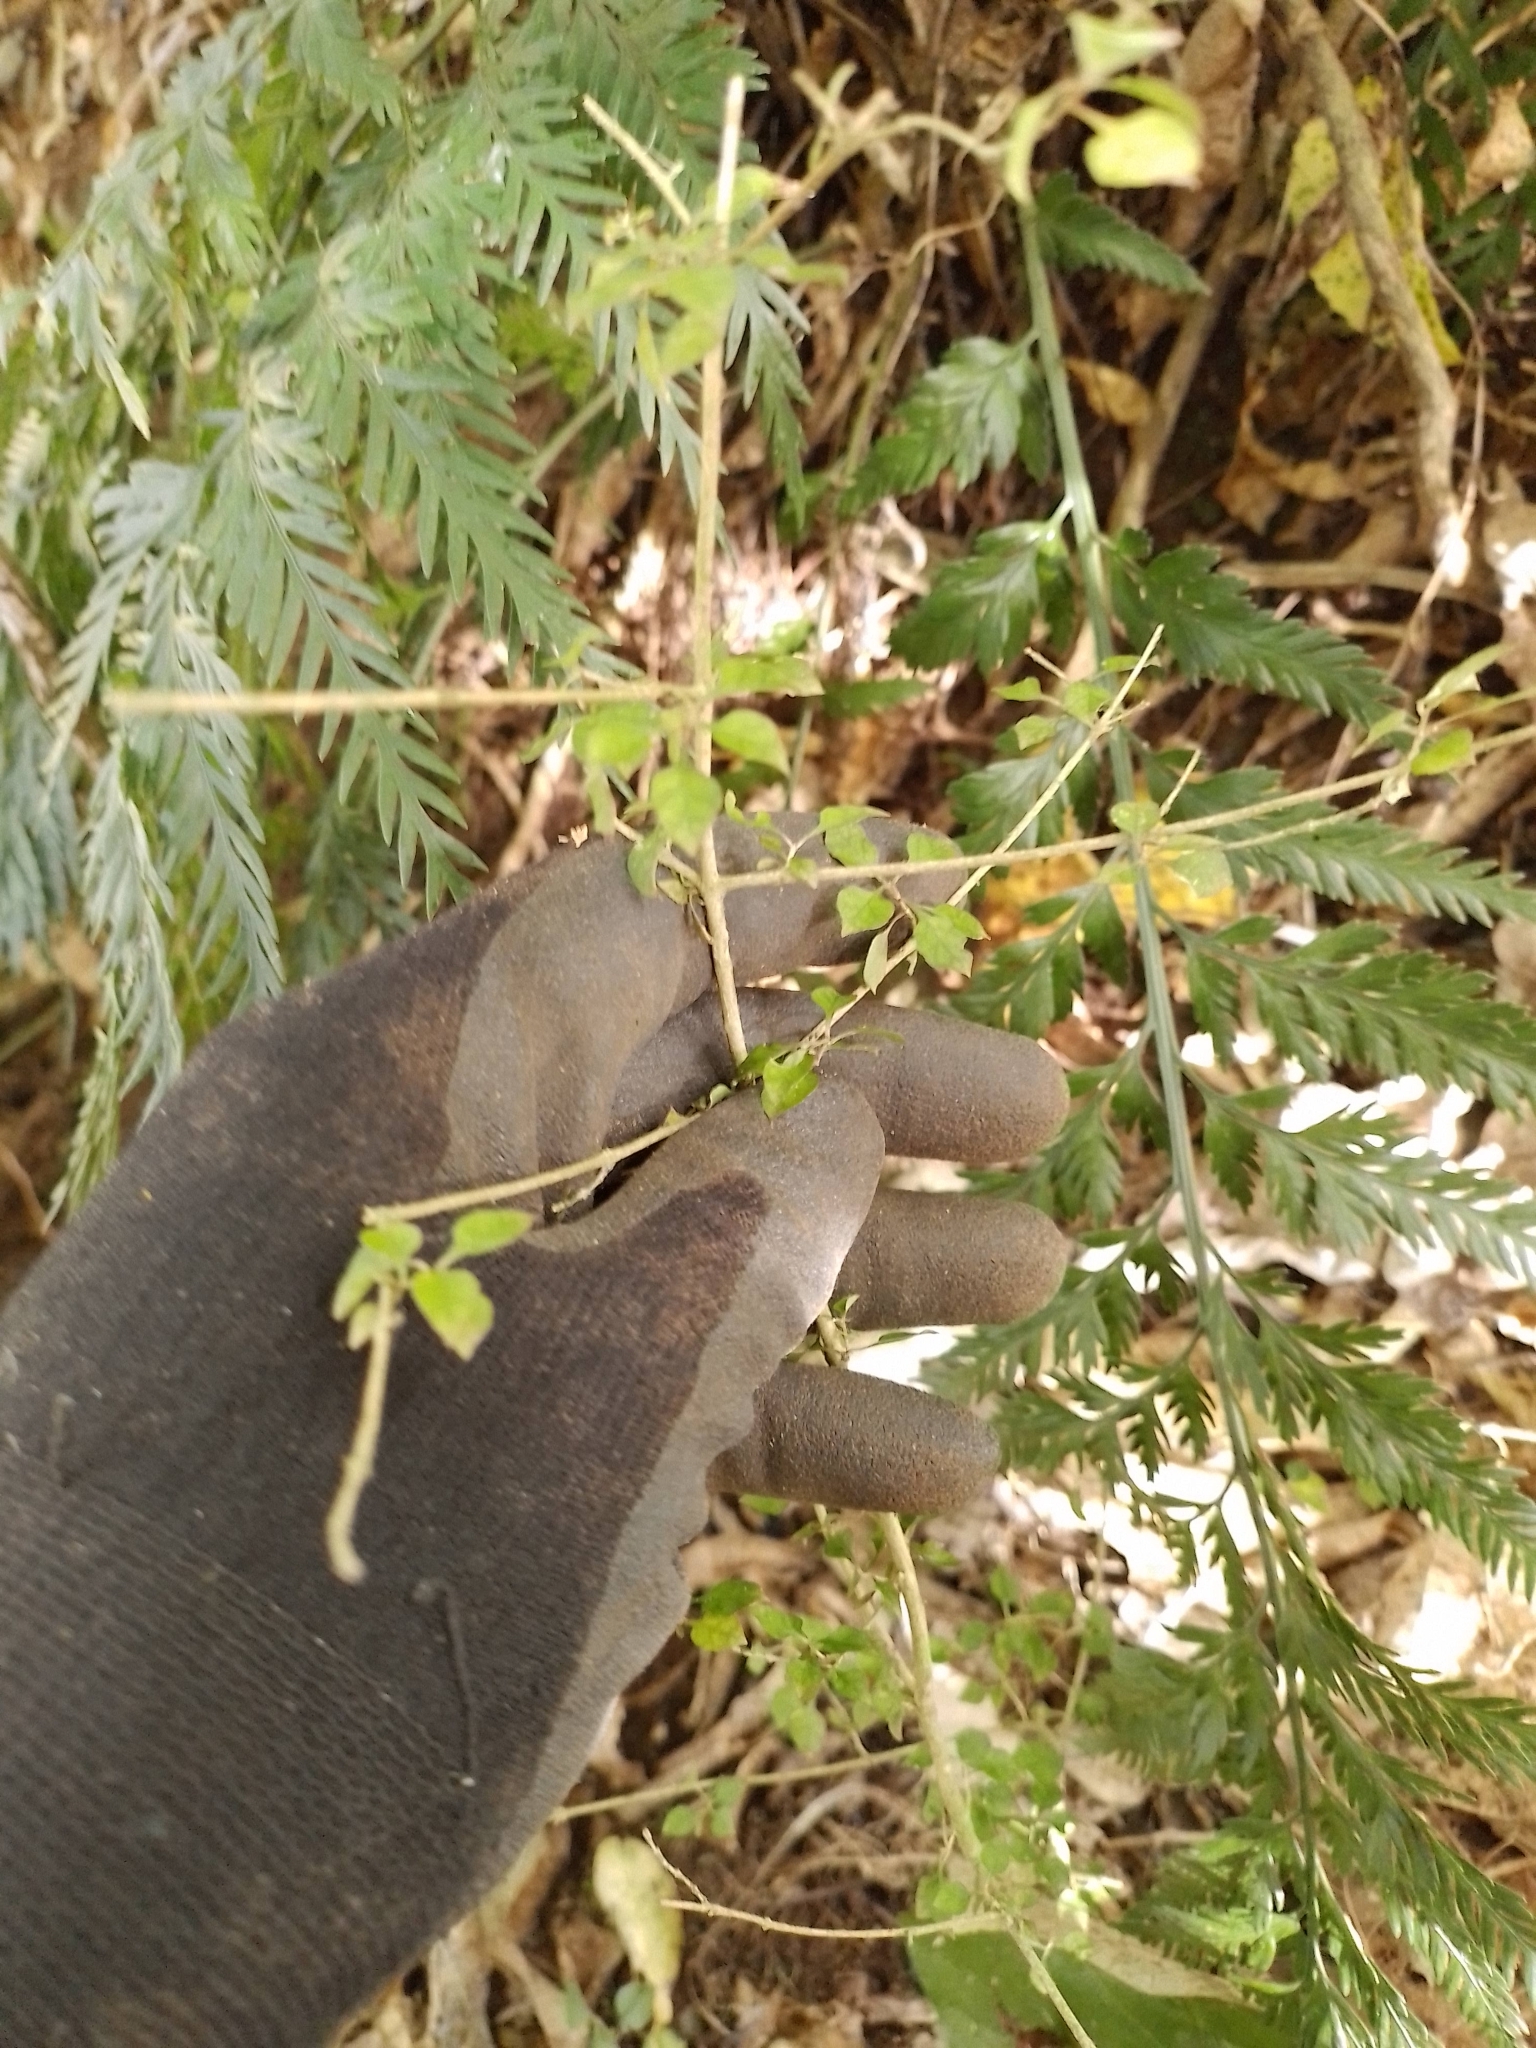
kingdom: Plantae
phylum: Tracheophyta
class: Magnoliopsida
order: Gentianales
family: Rubiaceae
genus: Coprosma
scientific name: Coprosma areolata
